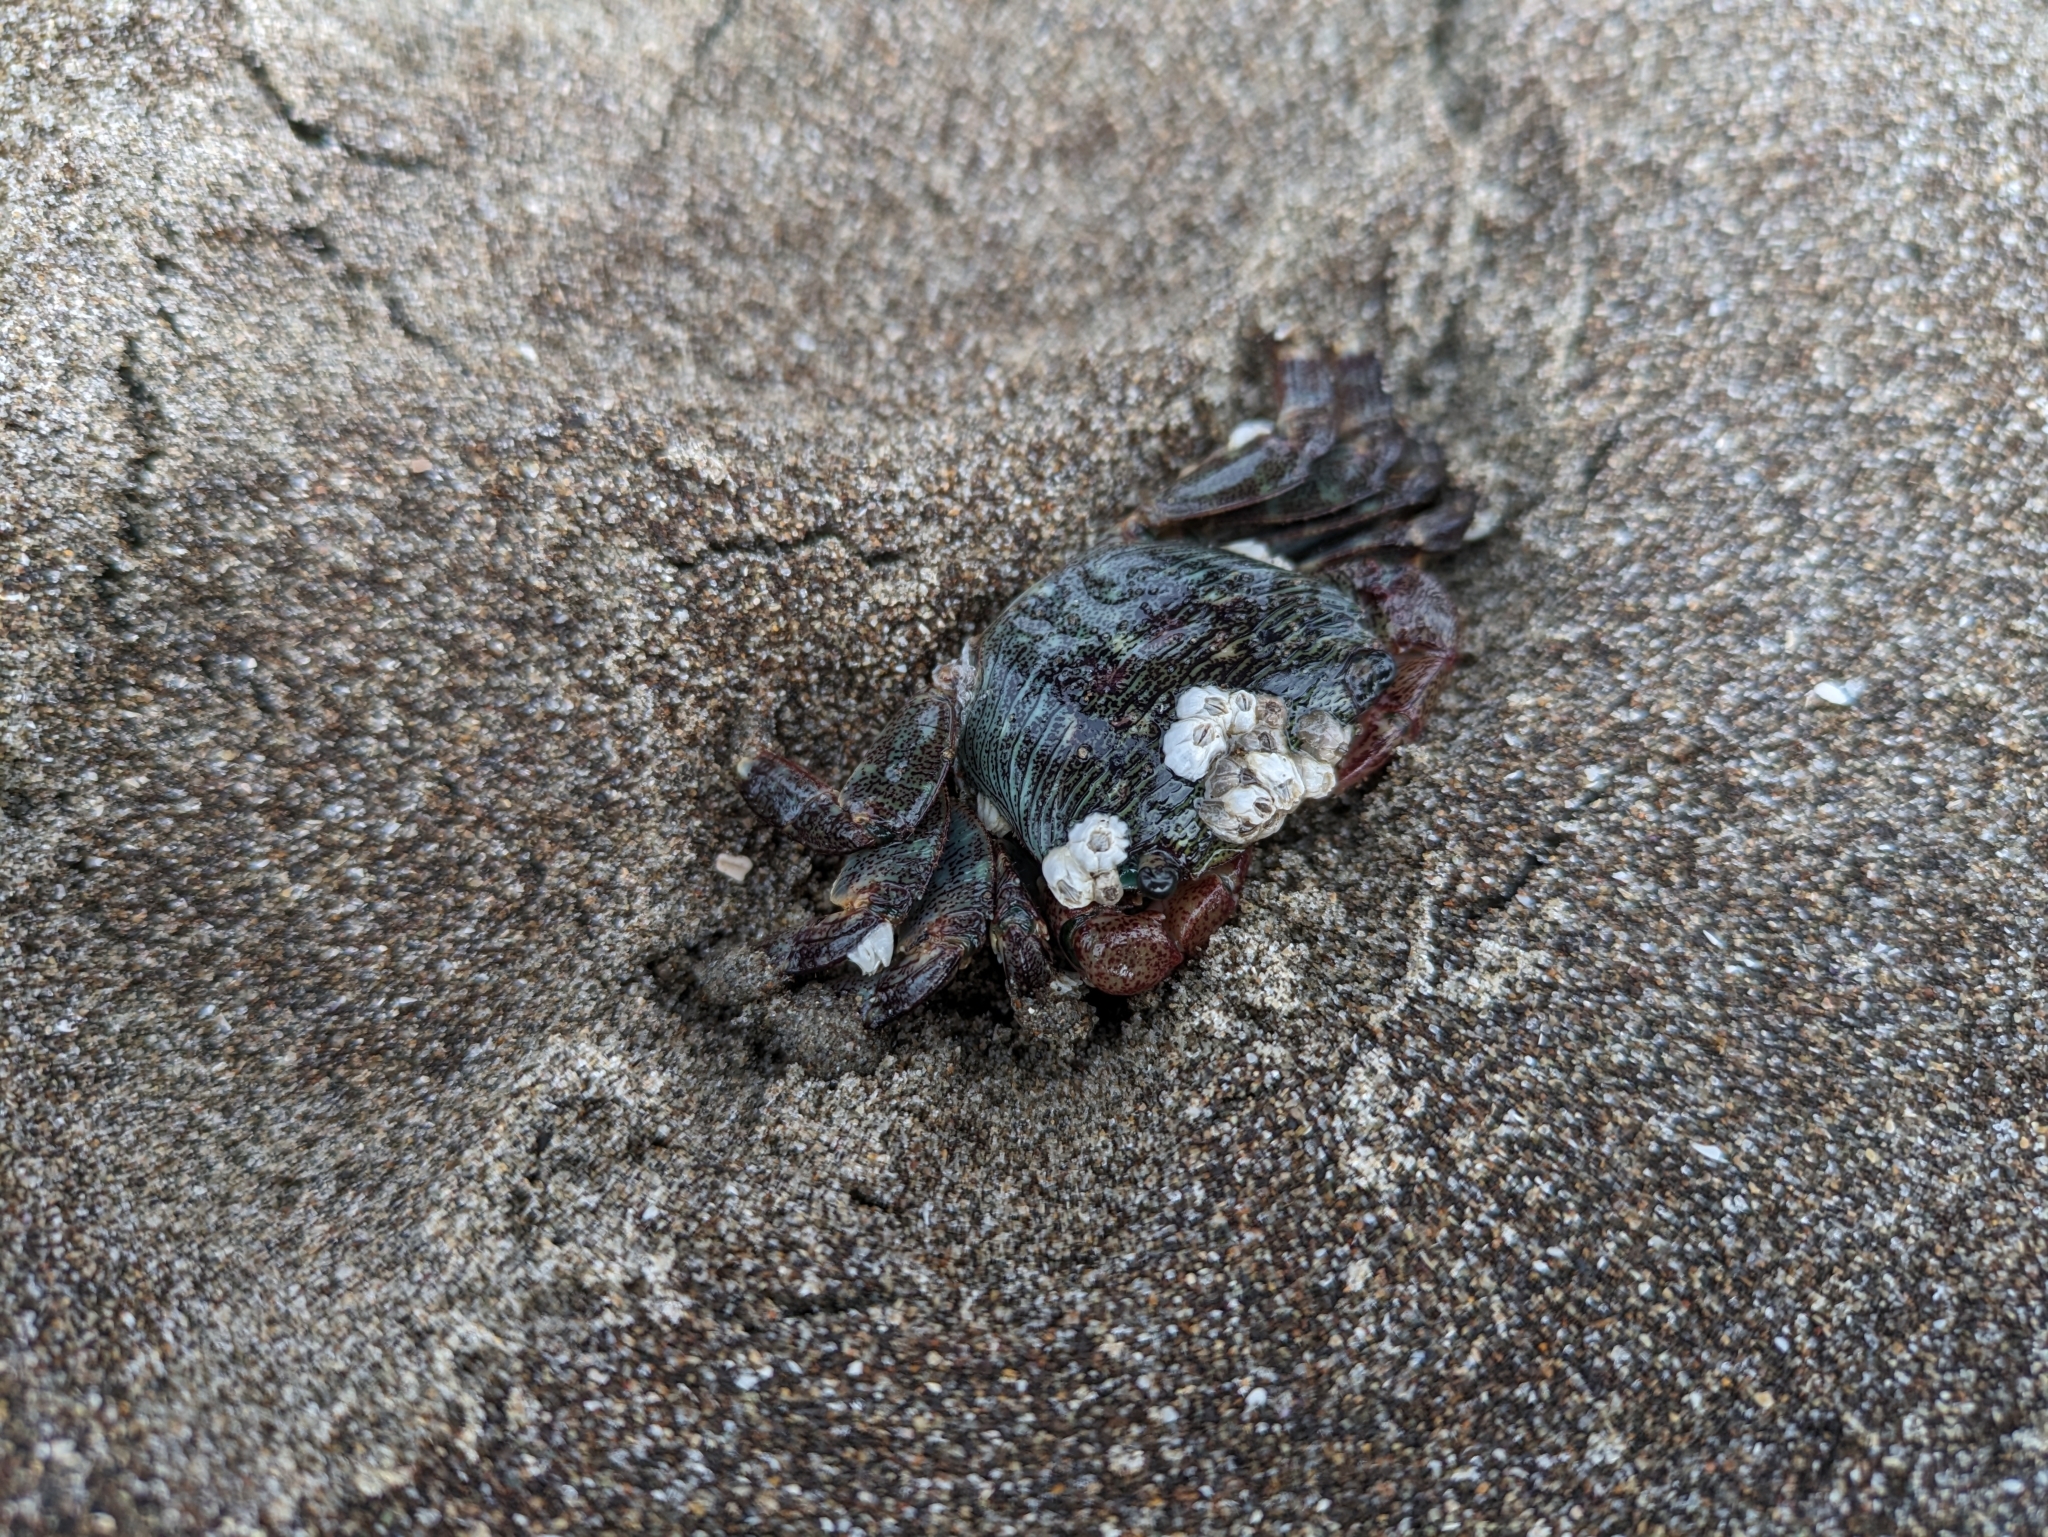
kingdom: Animalia
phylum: Arthropoda
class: Malacostraca
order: Decapoda
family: Grapsidae
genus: Pachygrapsus
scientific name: Pachygrapsus crassipes
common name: Striped shore crab
